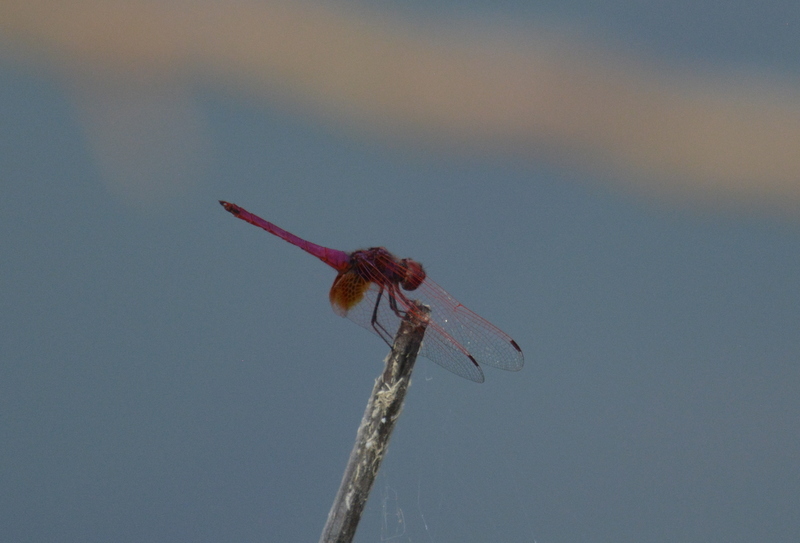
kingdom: Animalia
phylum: Arthropoda
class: Insecta
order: Odonata
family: Libellulidae
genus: Trithemis
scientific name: Trithemis aurora
